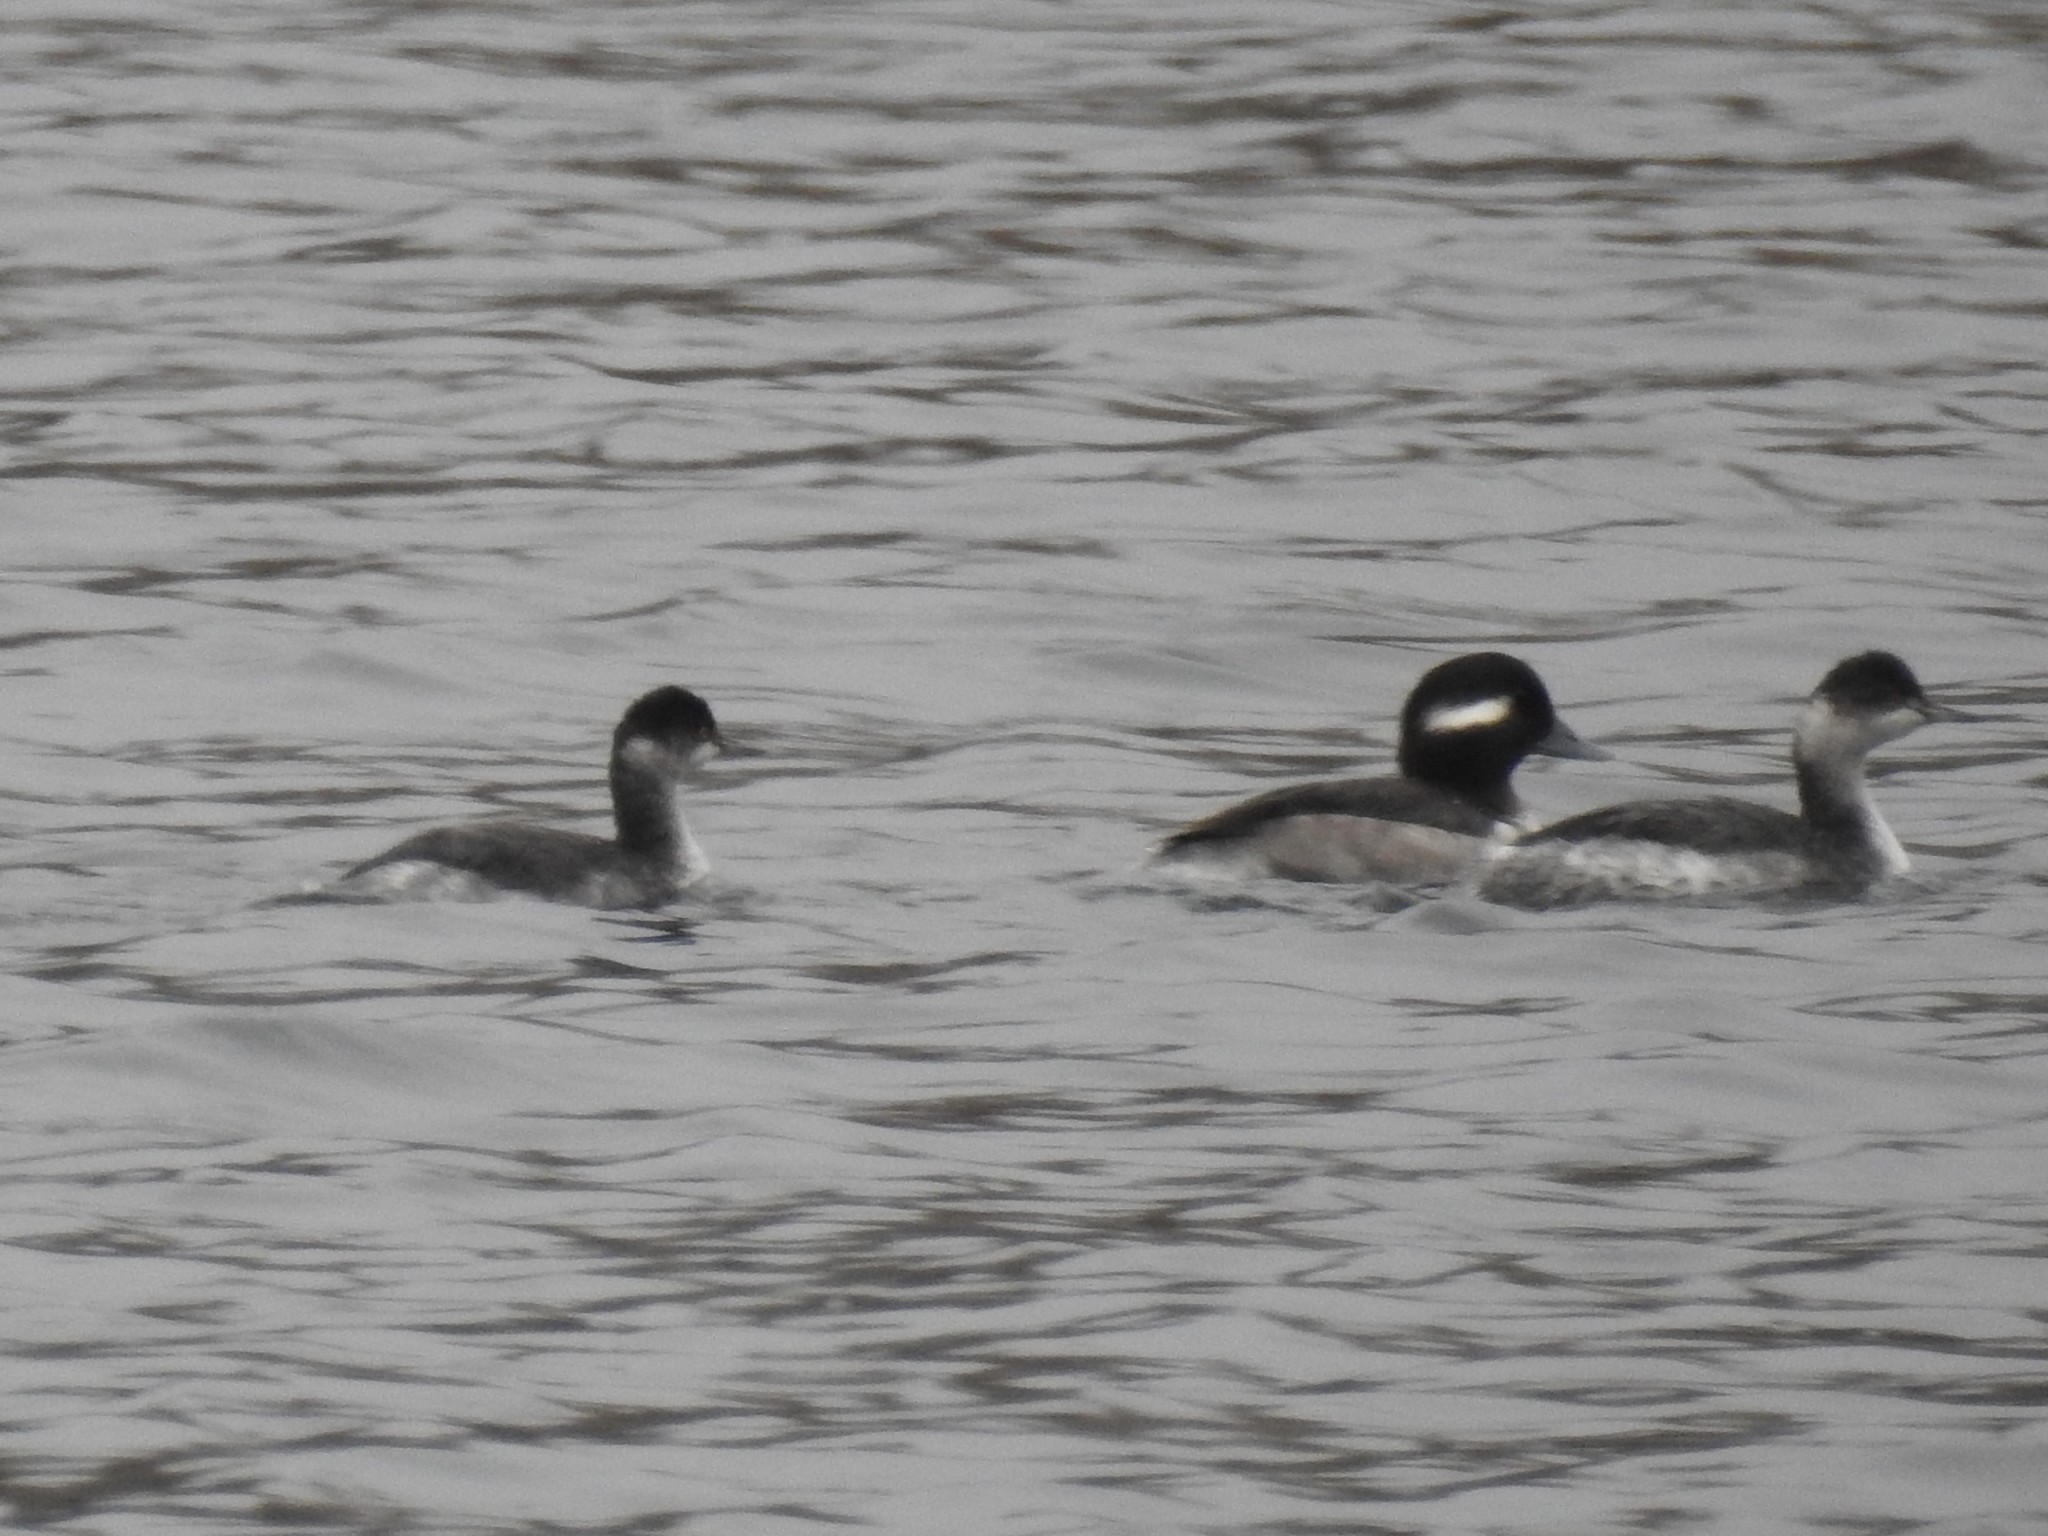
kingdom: Animalia
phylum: Chordata
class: Aves
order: Podicipediformes
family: Podicipedidae
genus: Podiceps
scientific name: Podiceps nigricollis
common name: Black-necked grebe
